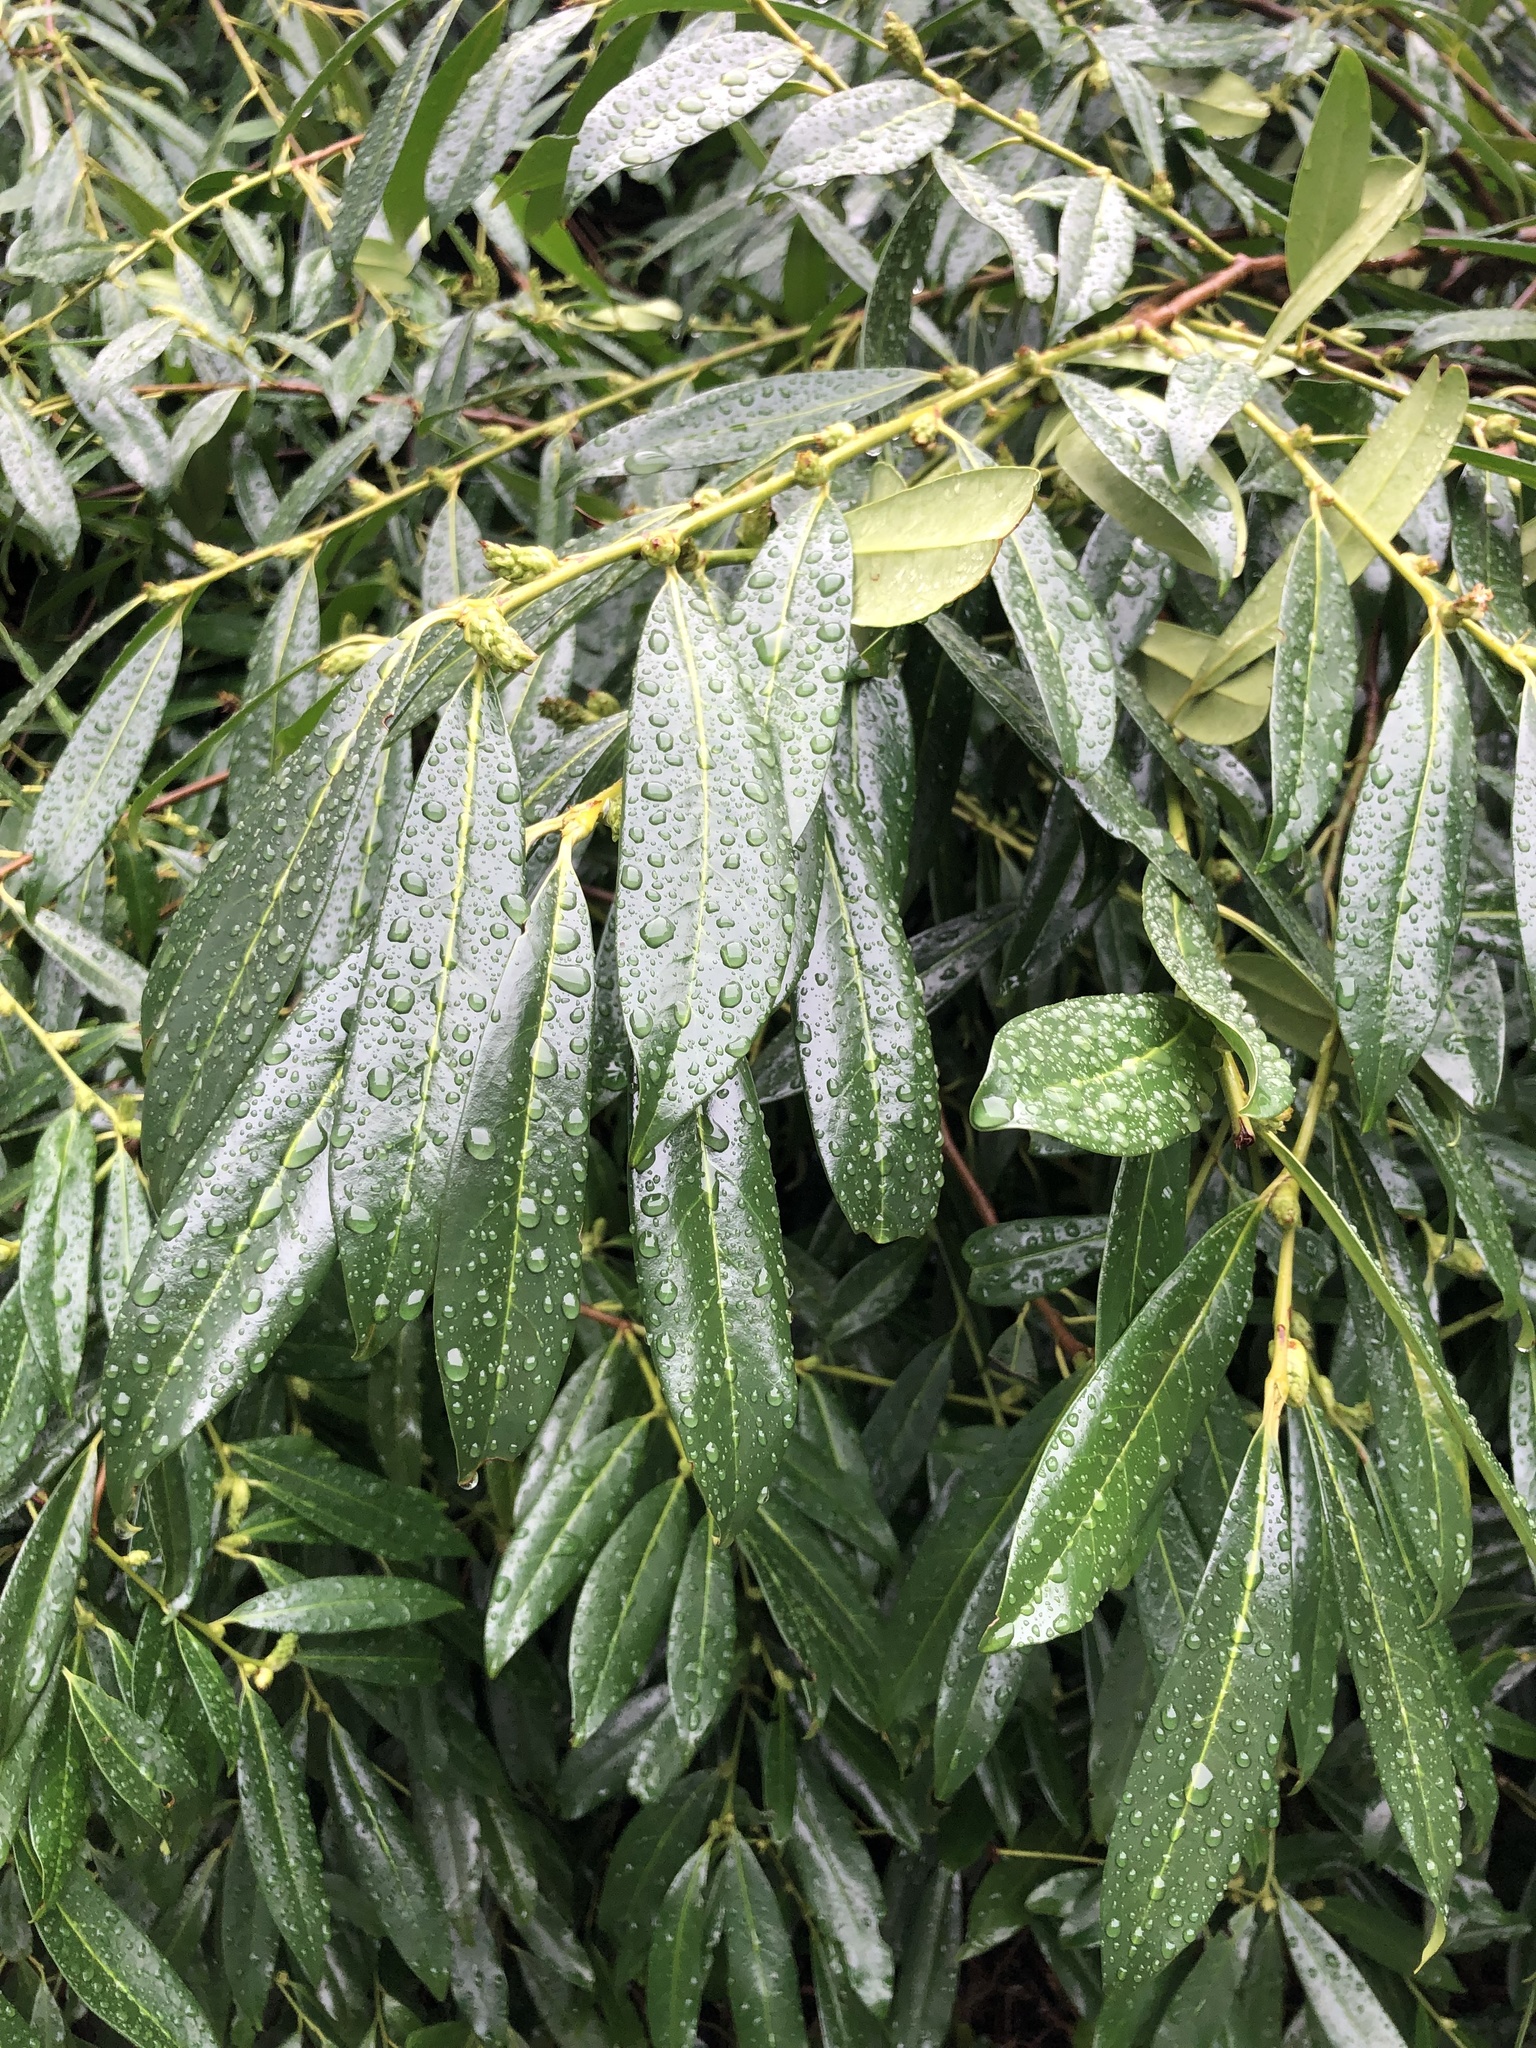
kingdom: Plantae
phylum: Tracheophyta
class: Magnoliopsida
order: Rosales
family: Rosaceae
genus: Prunus
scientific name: Prunus laurocerasus
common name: Cherry laurel
